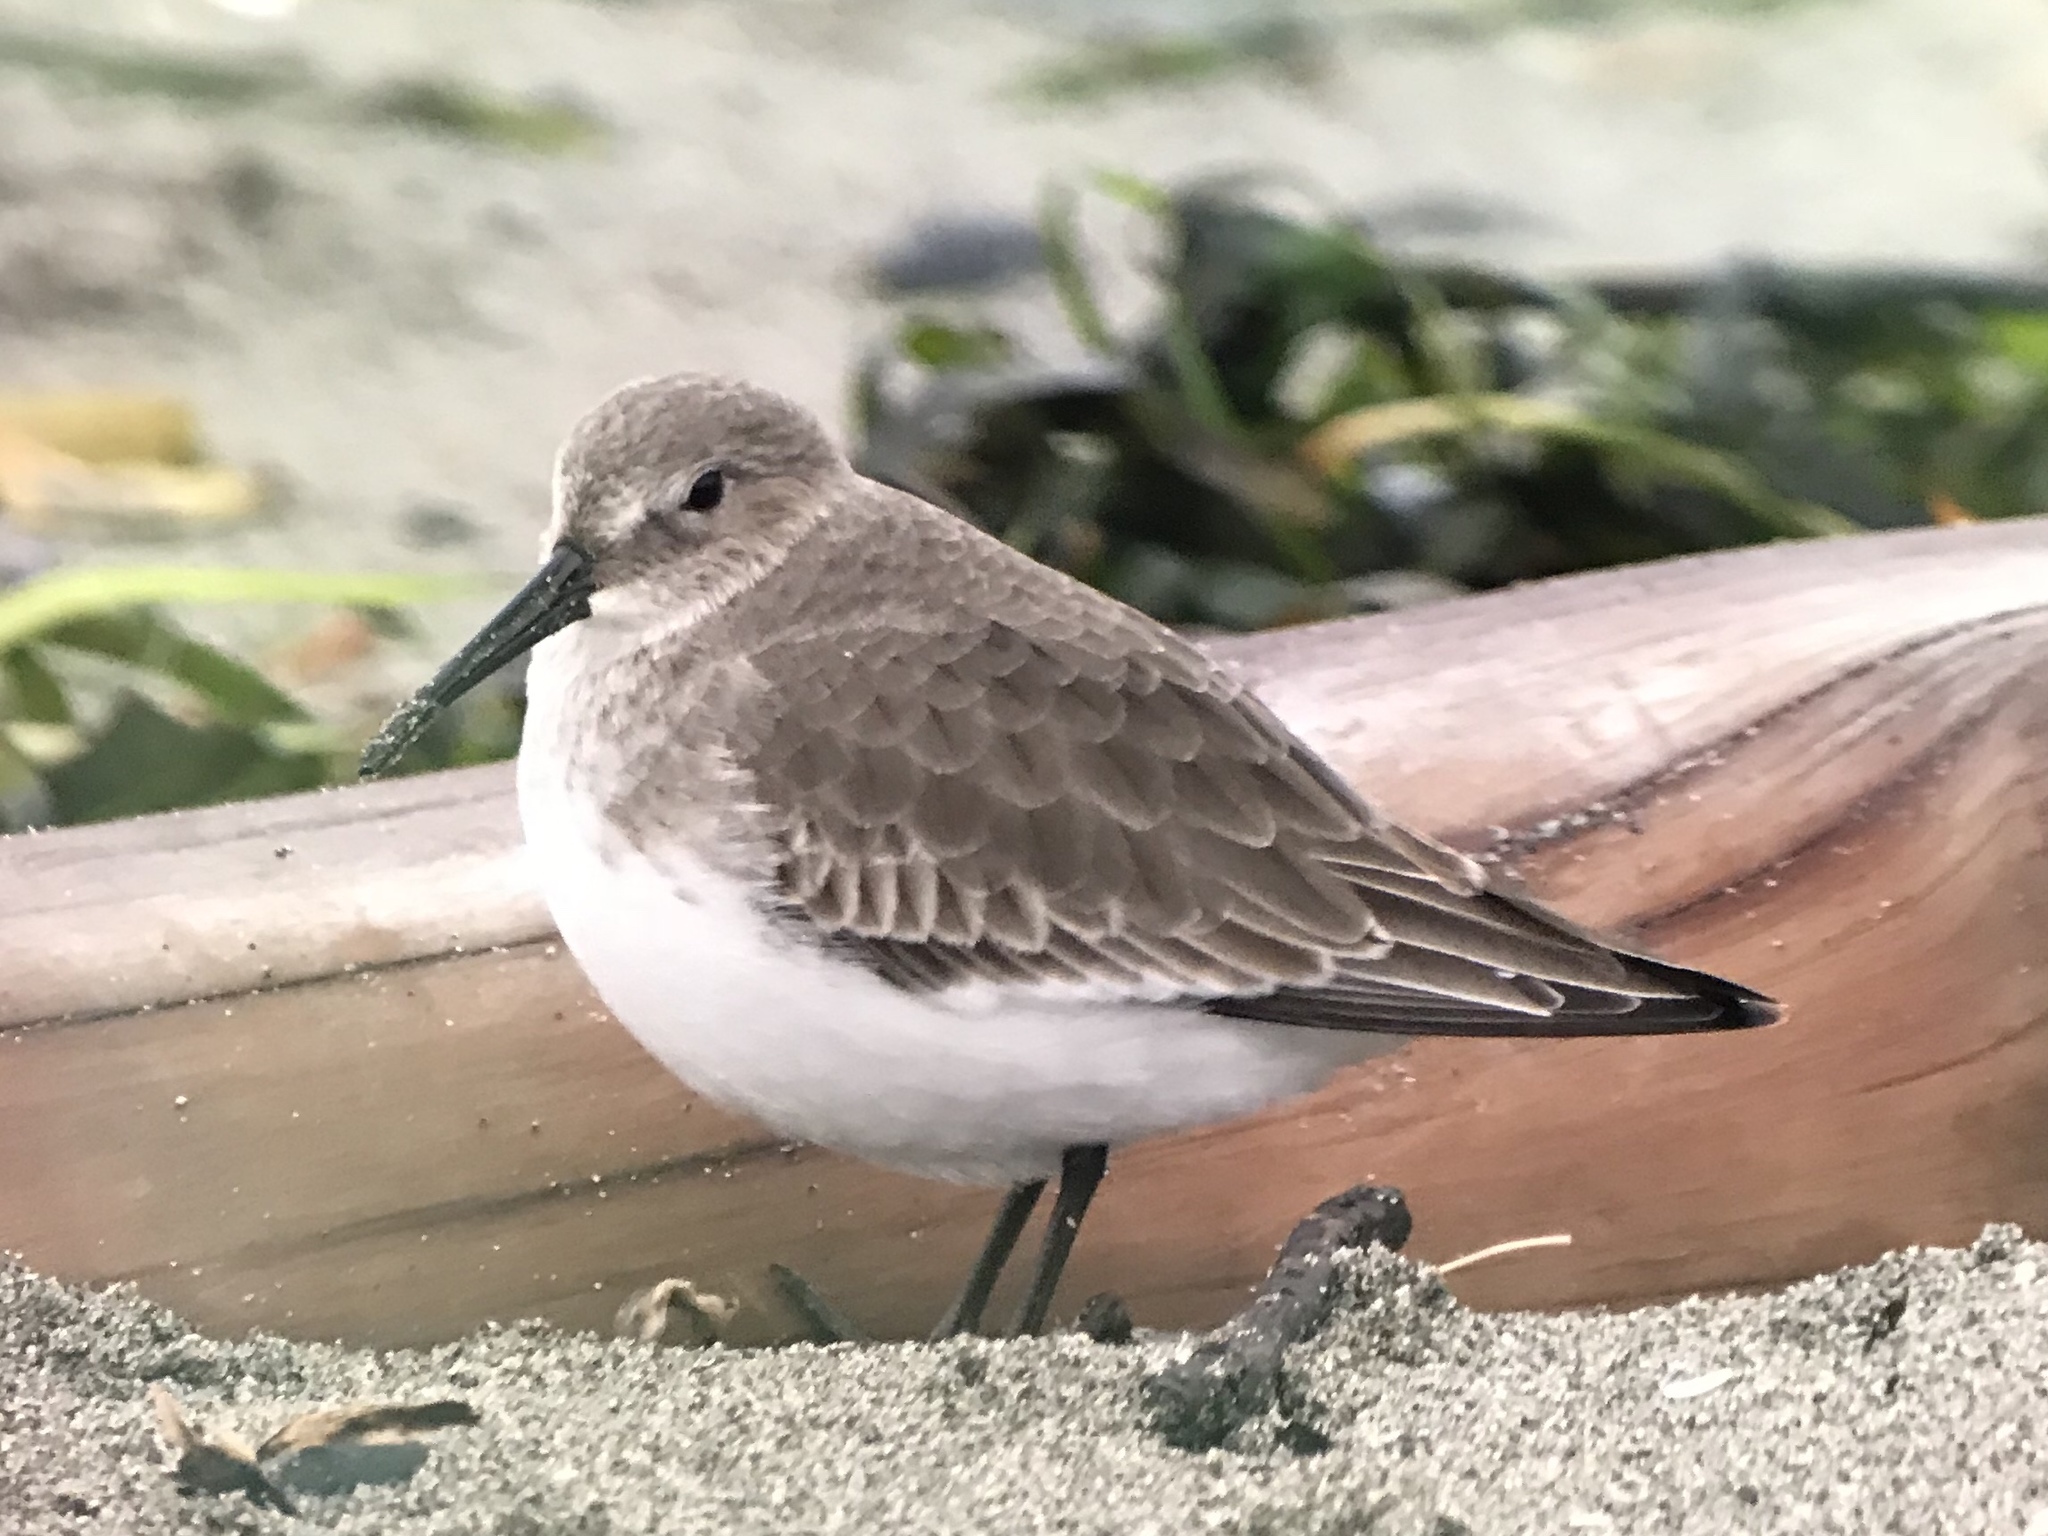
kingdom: Animalia
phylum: Chordata
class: Aves
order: Charadriiformes
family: Scolopacidae
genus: Calidris
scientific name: Calidris alpina
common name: Dunlin
